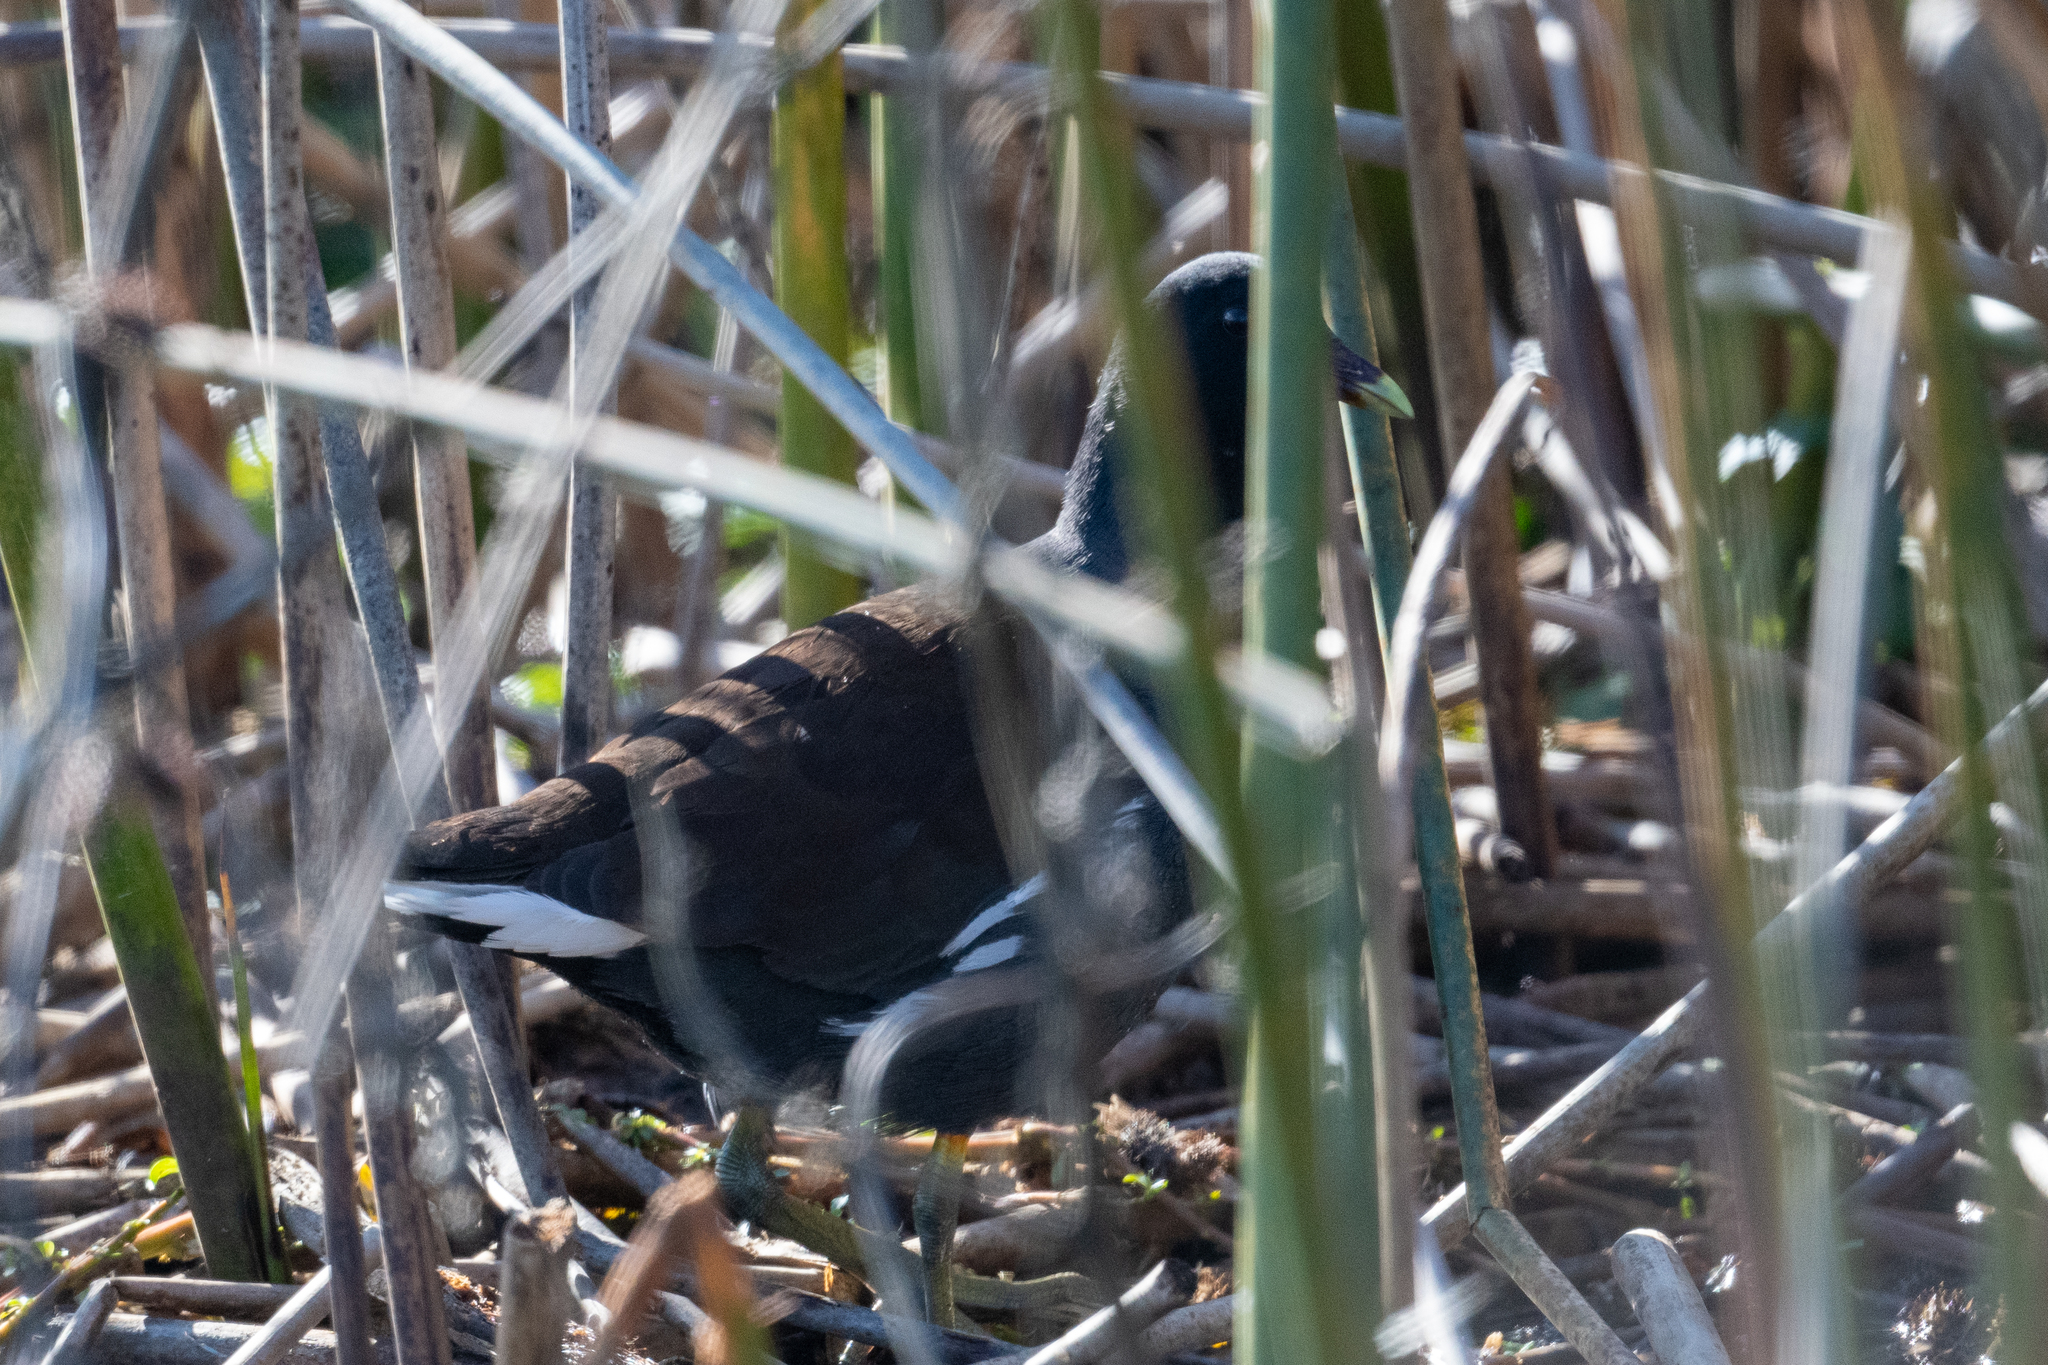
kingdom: Animalia
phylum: Chordata
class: Aves
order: Gruiformes
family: Rallidae
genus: Gallinula
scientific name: Gallinula chloropus
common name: Common moorhen
